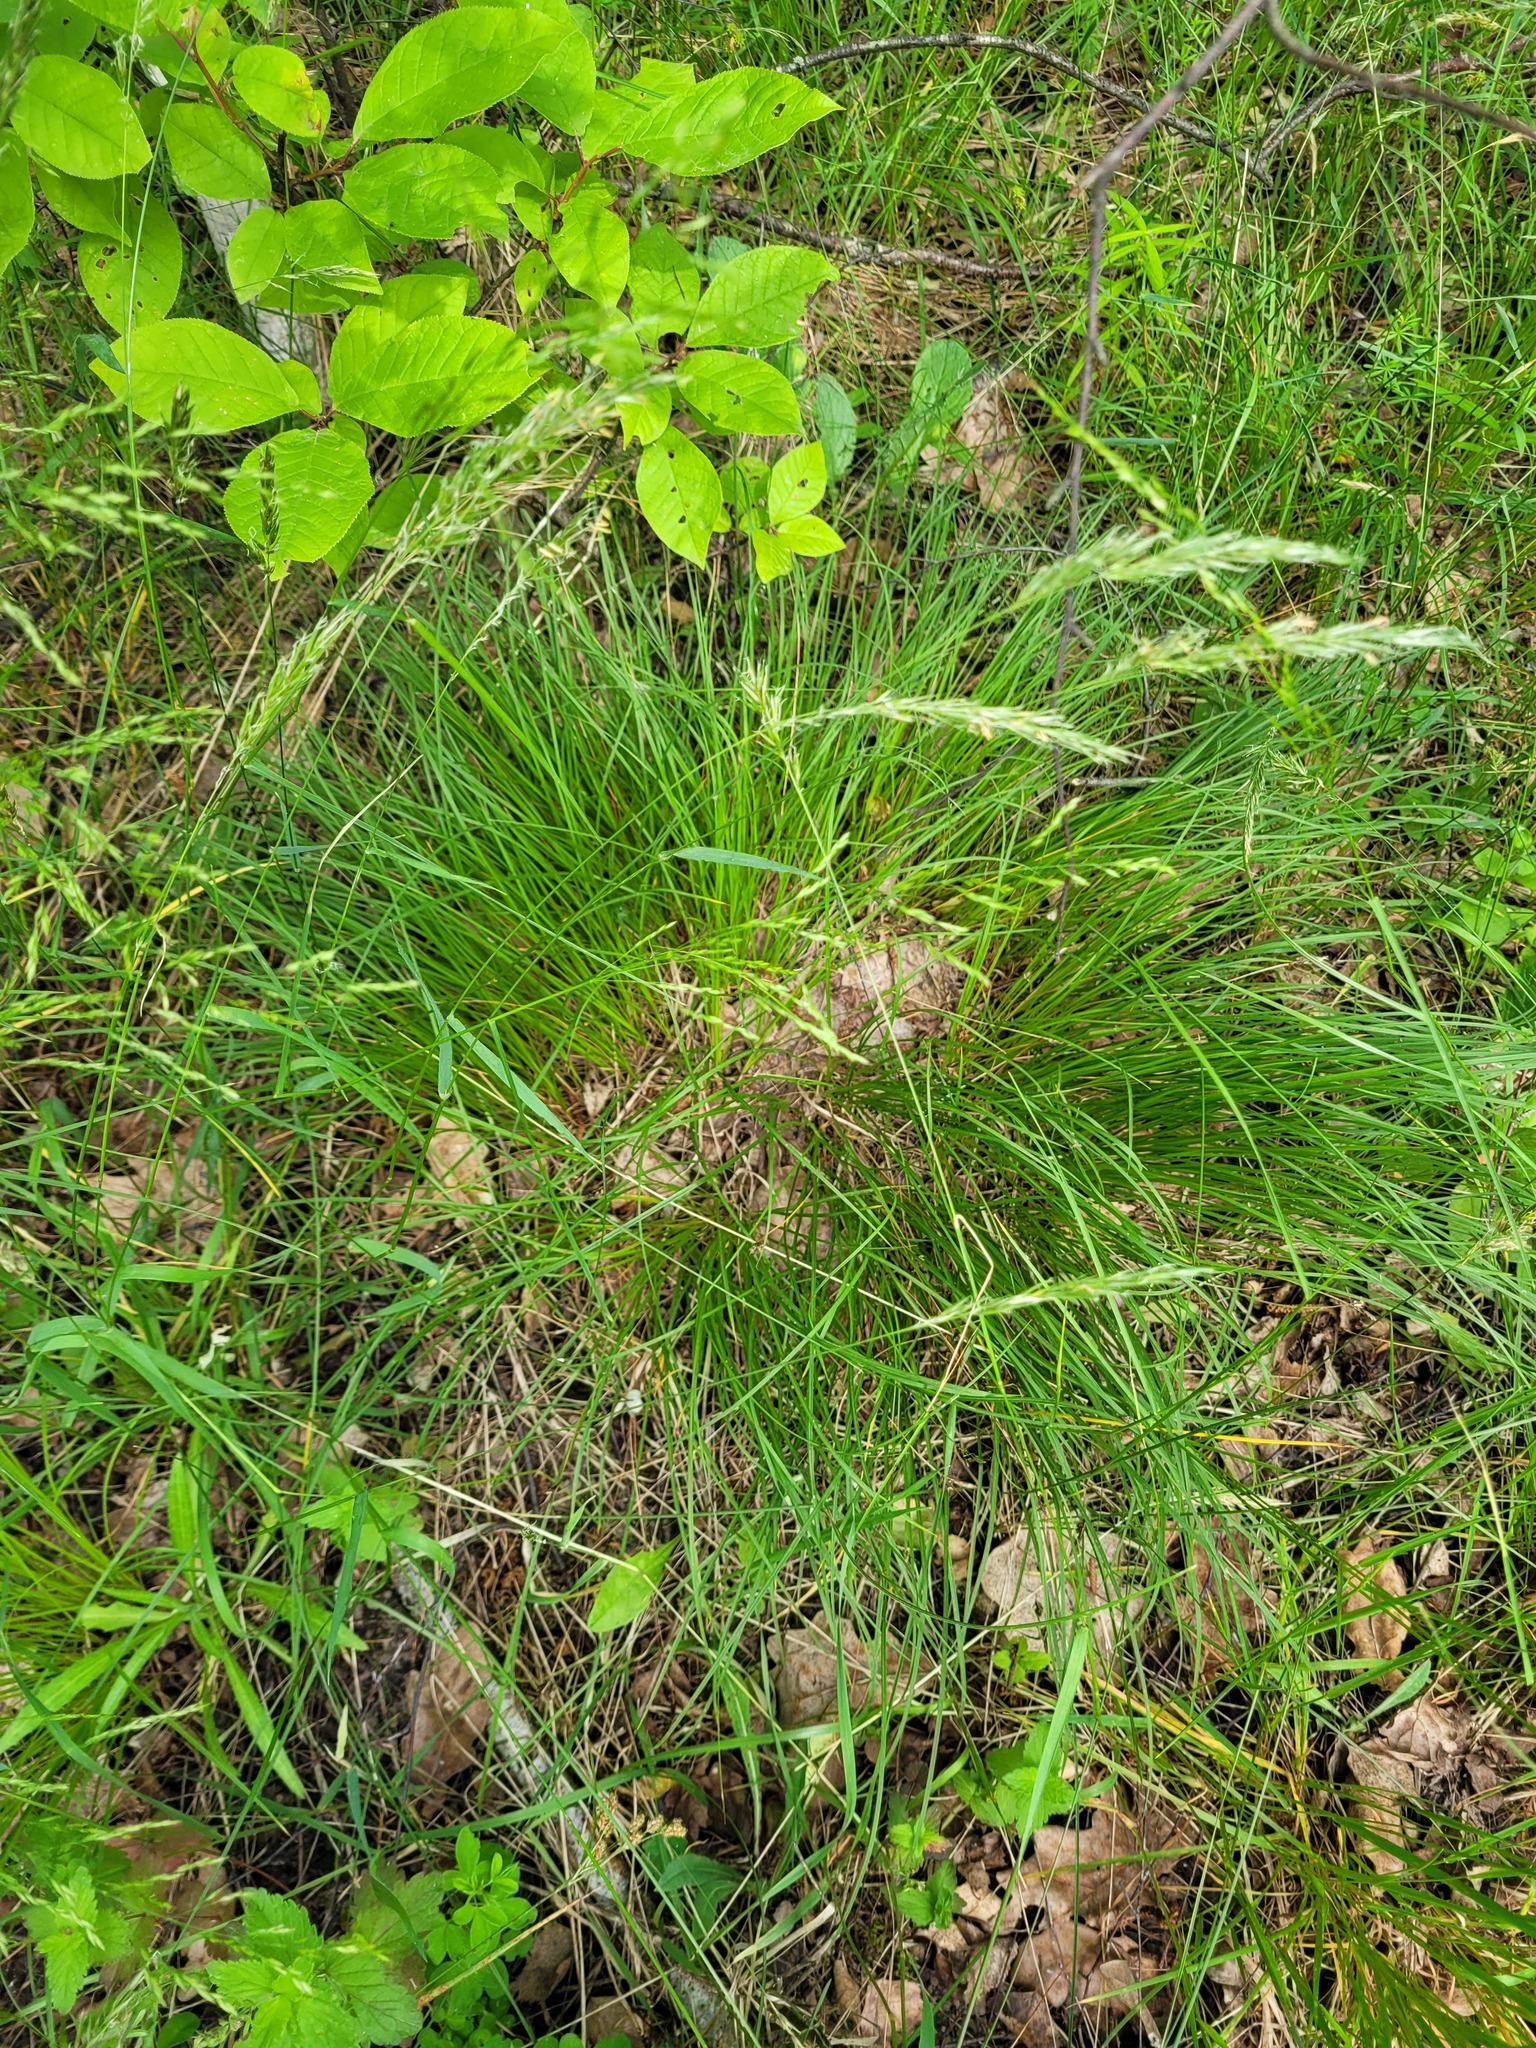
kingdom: Plantae
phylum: Tracheophyta
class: Liliopsida
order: Poales
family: Cyperaceae
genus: Carex
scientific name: Carex montana
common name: Soft-leaved sedge
